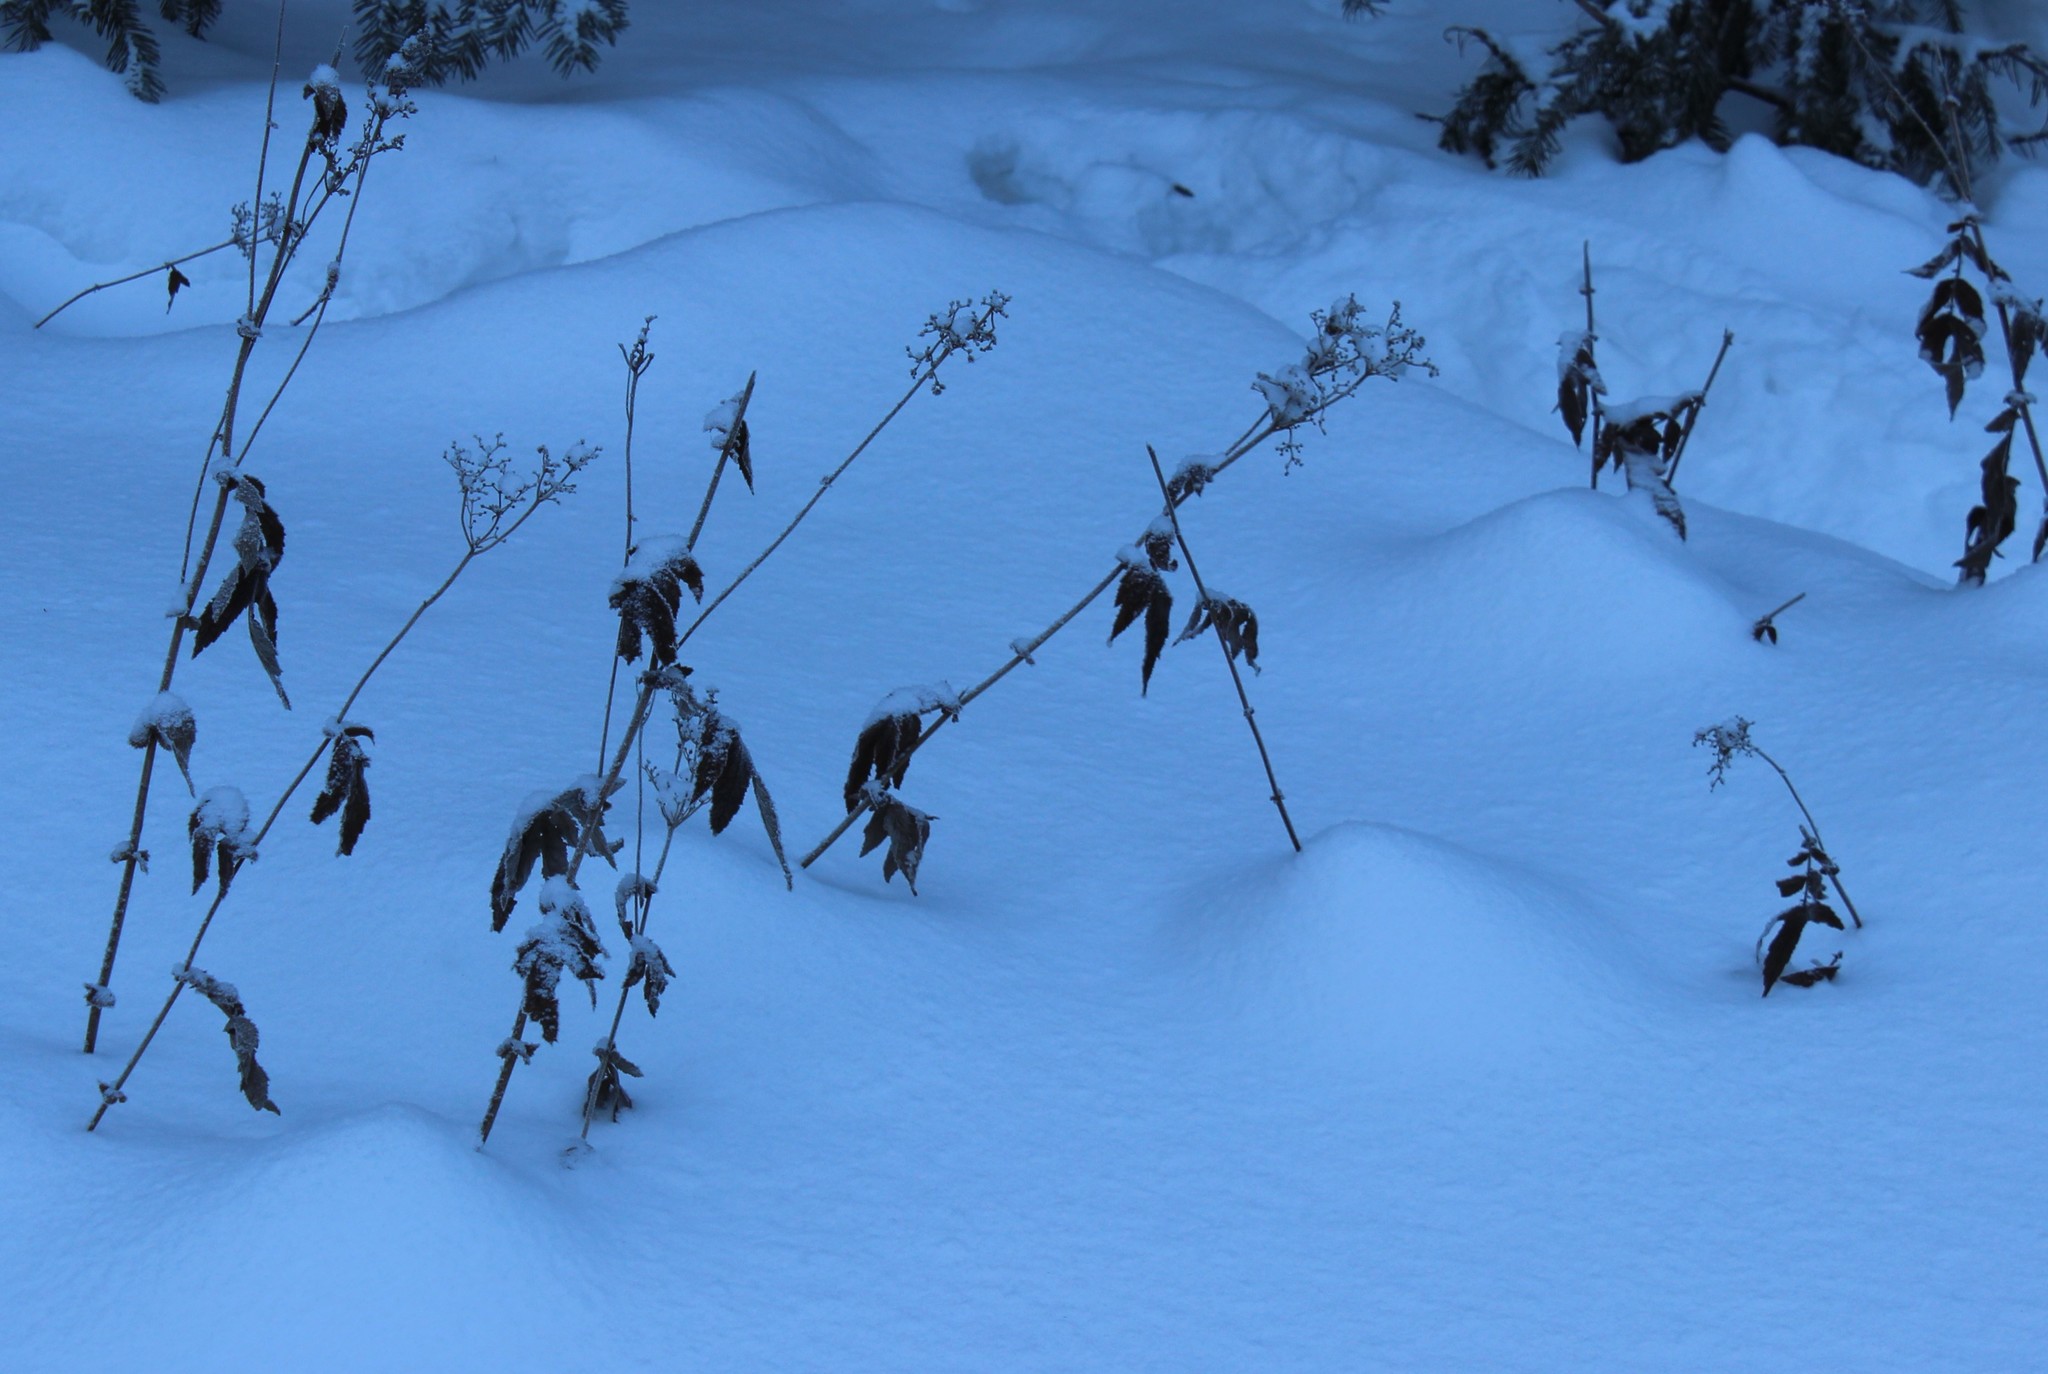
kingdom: Plantae
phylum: Tracheophyta
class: Magnoliopsida
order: Rosales
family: Rosaceae
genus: Filipendula
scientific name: Filipendula ulmaria
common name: Meadowsweet
